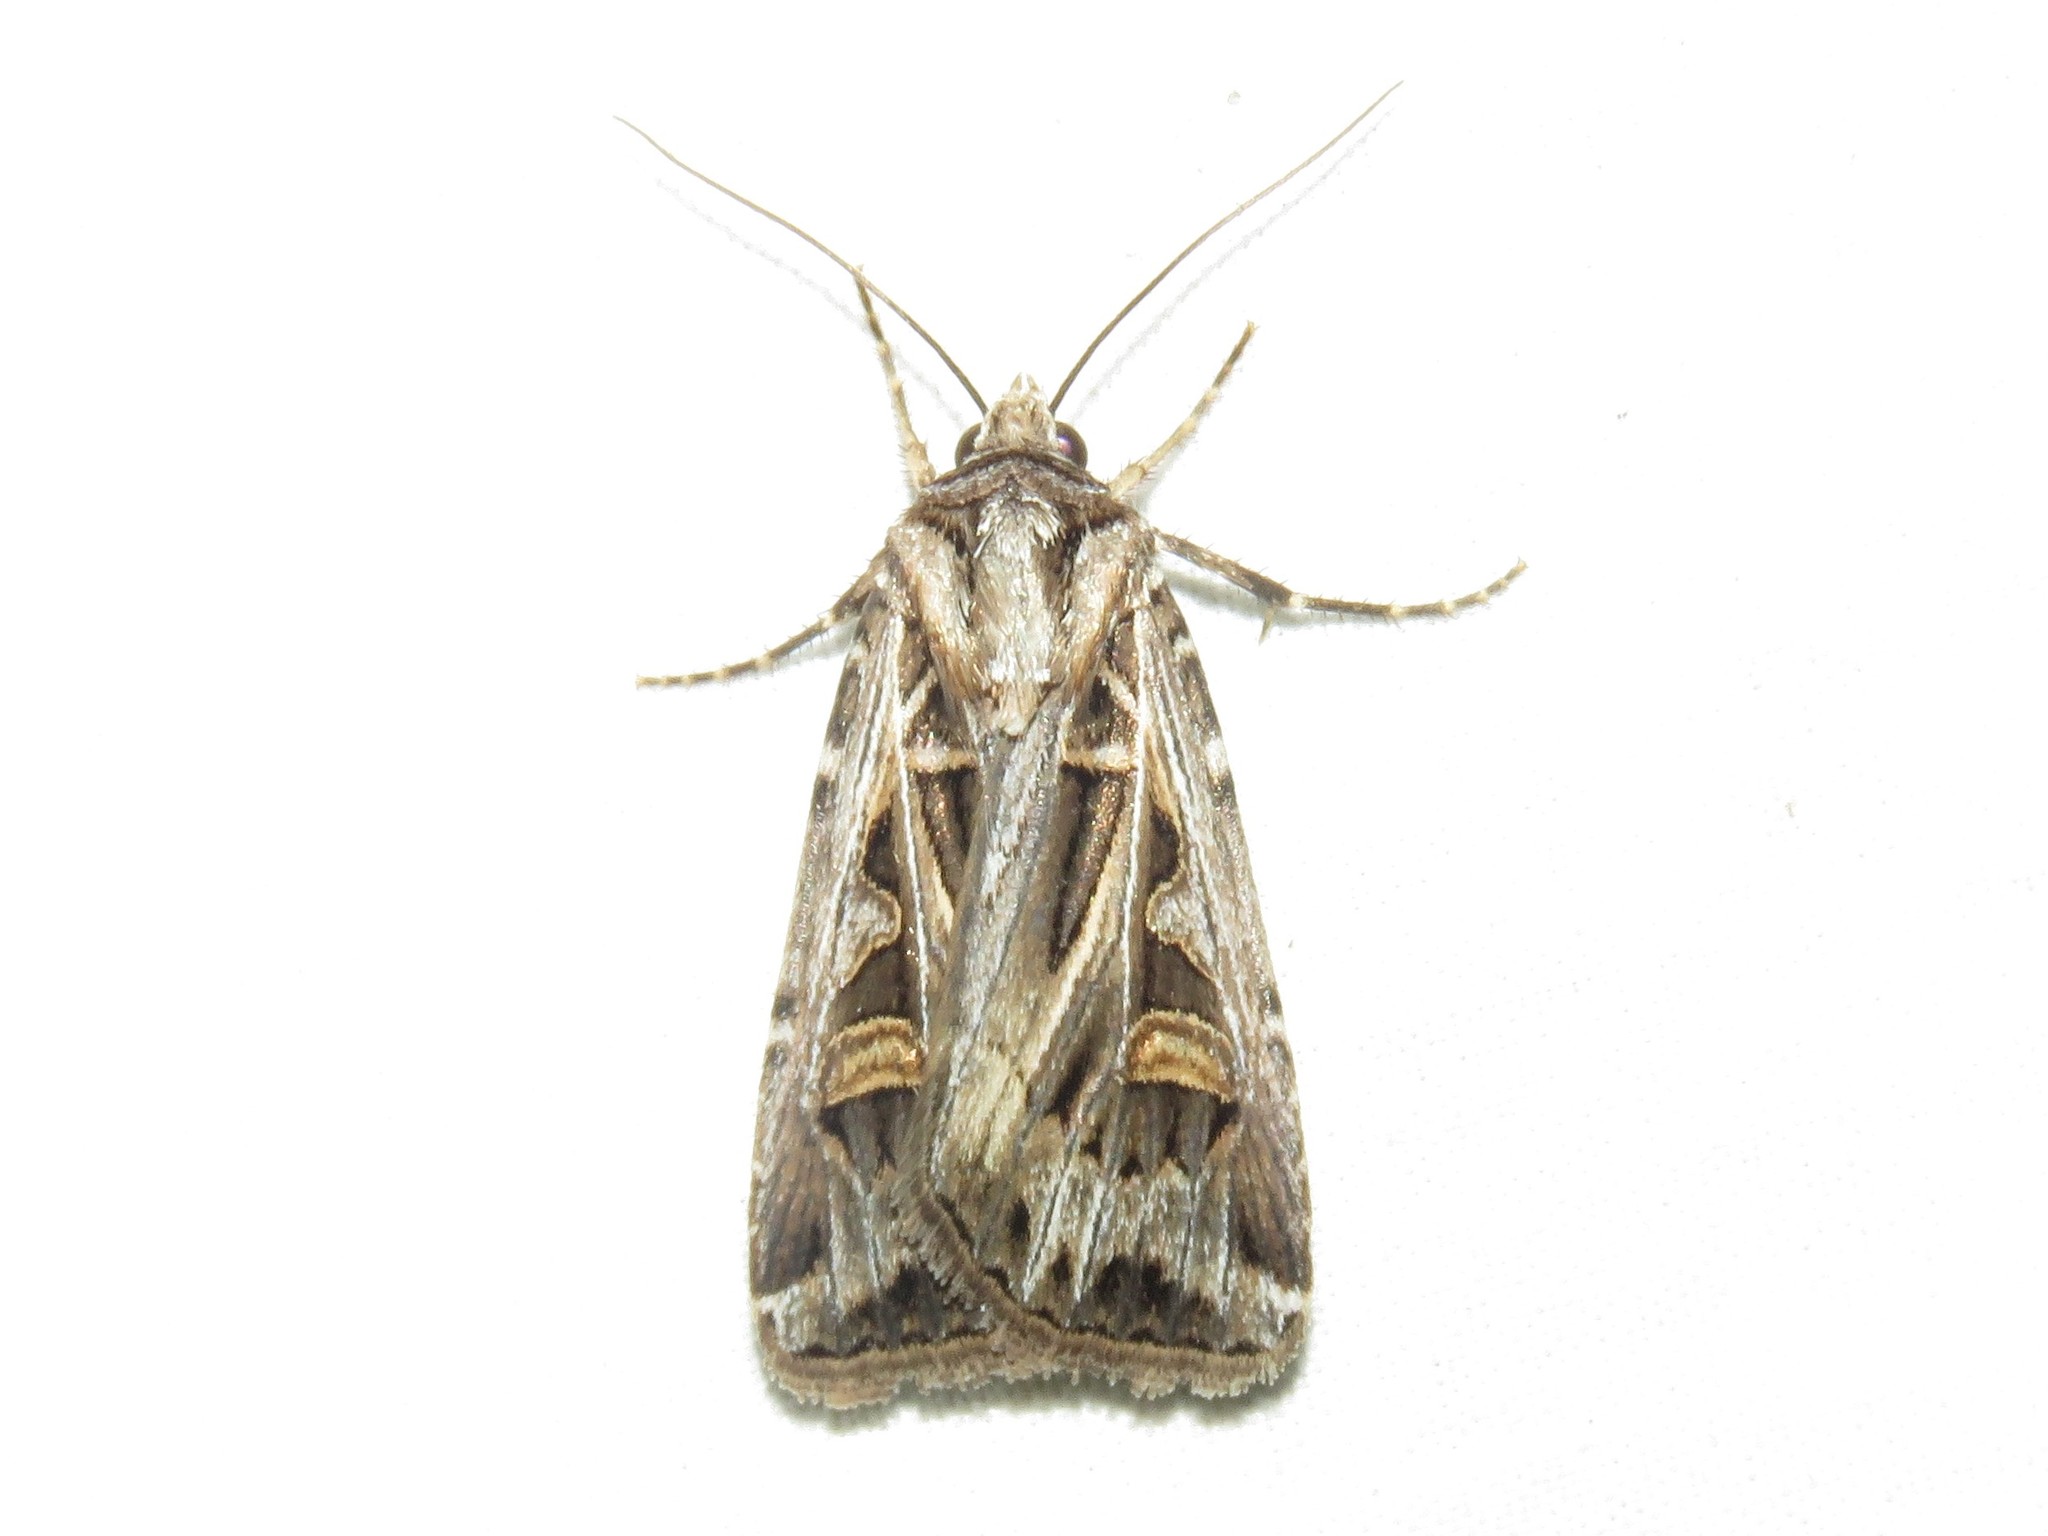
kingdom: Animalia
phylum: Arthropoda
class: Insecta
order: Lepidoptera
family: Noctuidae
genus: Feltia
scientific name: Feltia jaculifera
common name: Dingy cutworm moth
